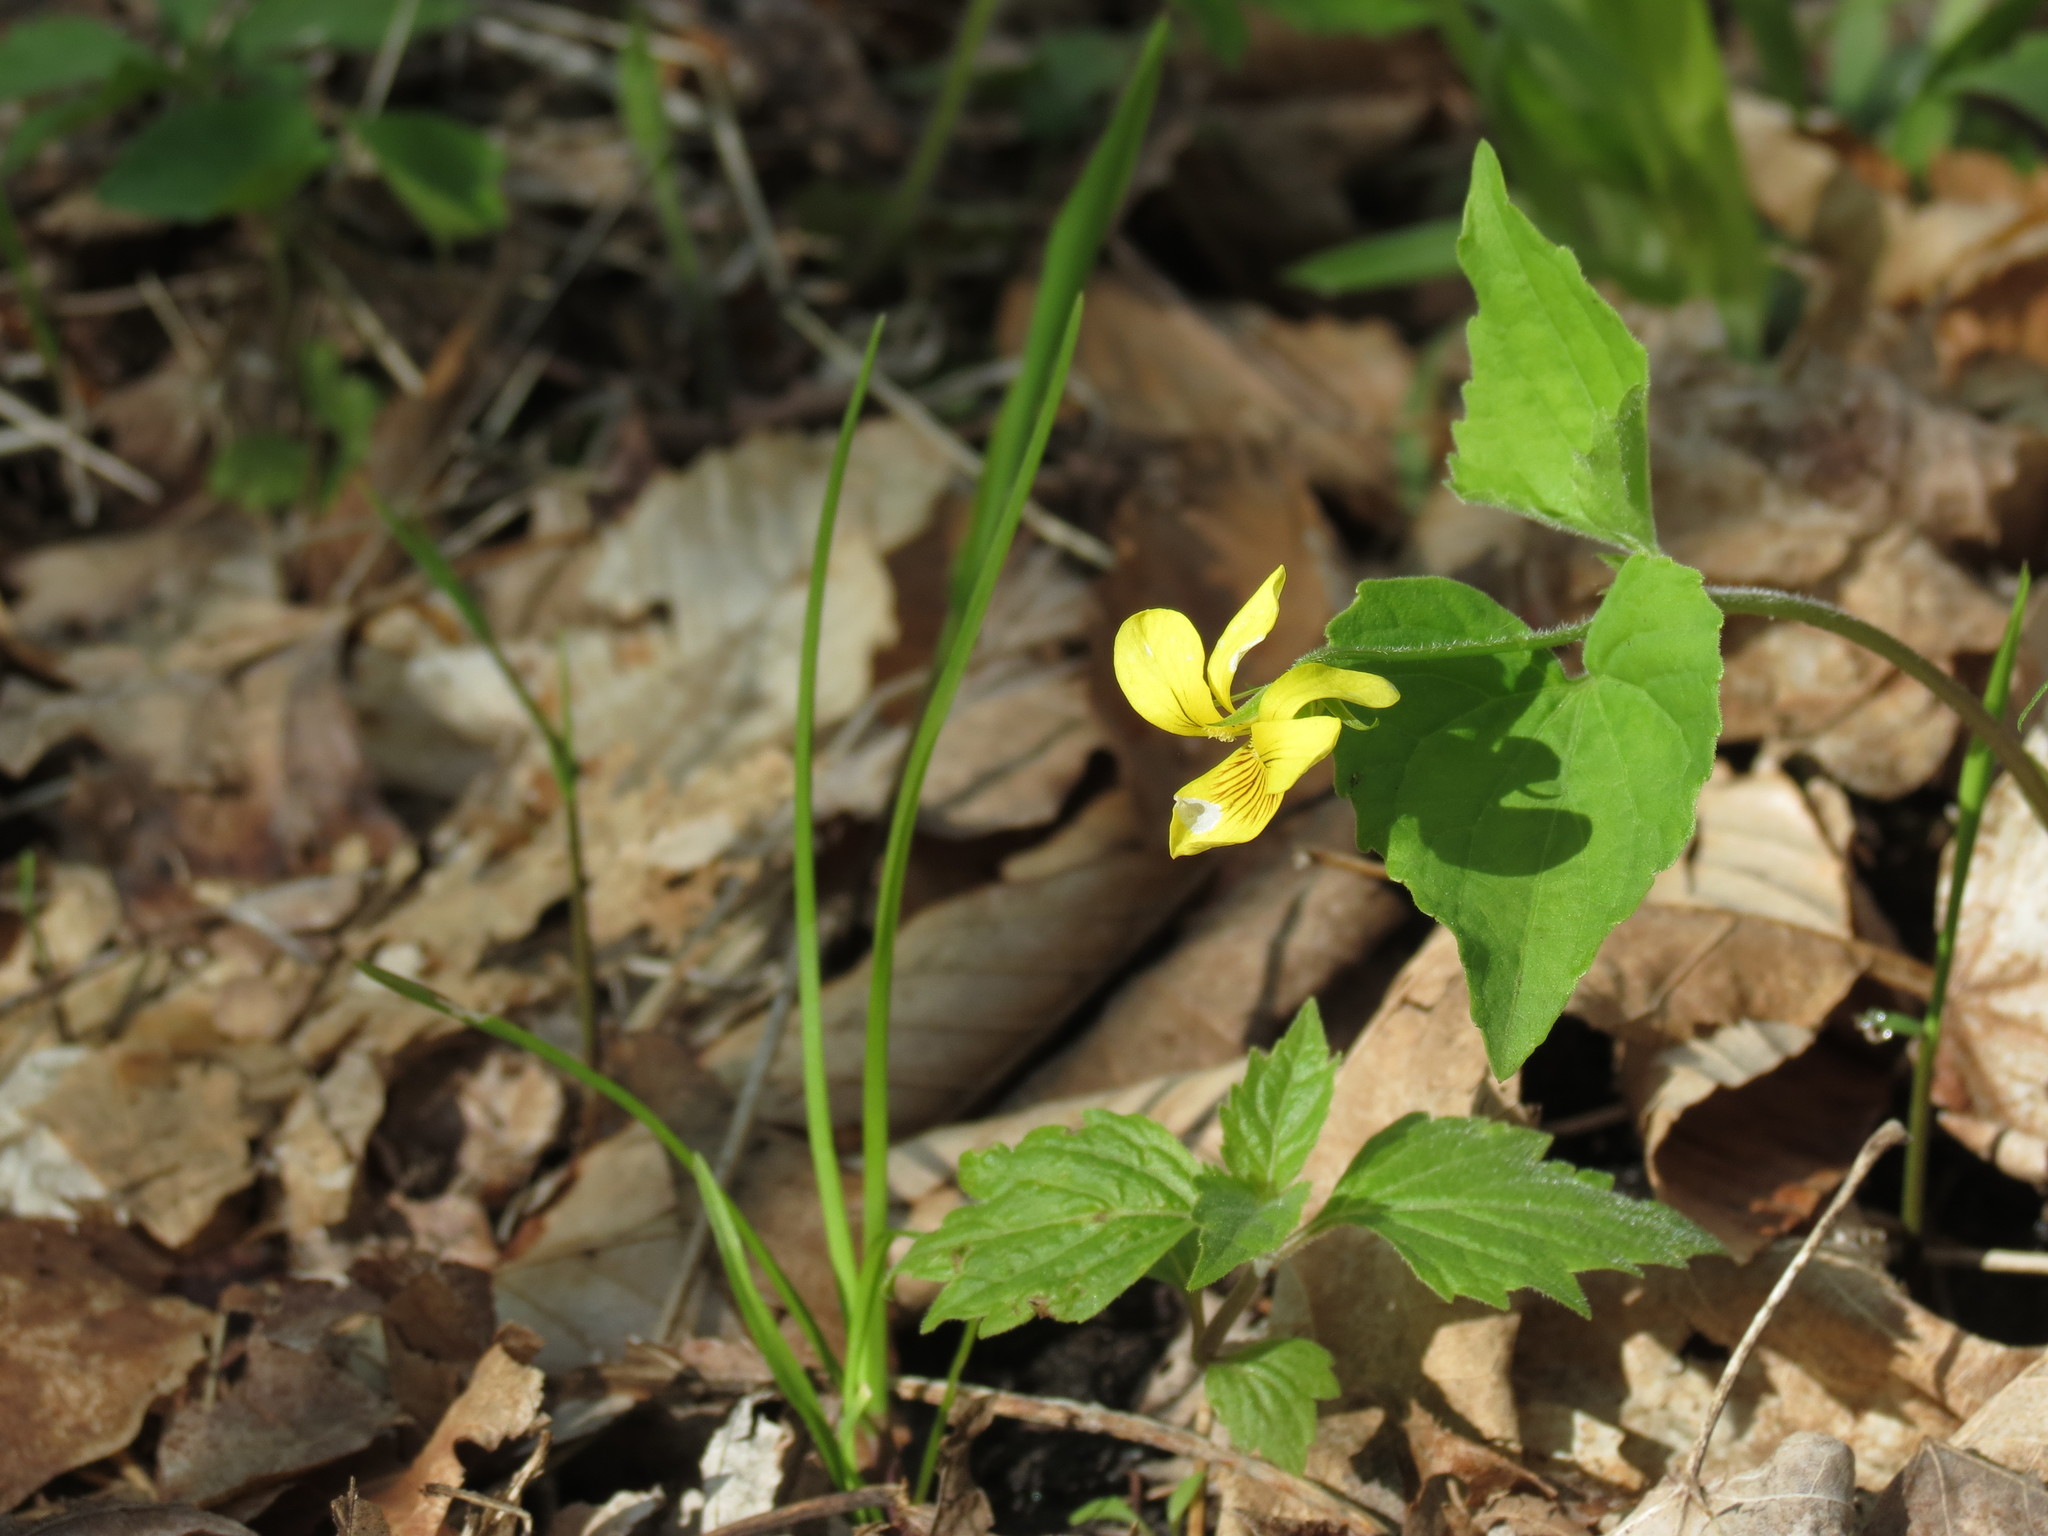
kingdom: Plantae
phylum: Tracheophyta
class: Magnoliopsida
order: Malpighiales
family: Violaceae
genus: Viola
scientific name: Viola eriocarpa
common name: Smooth yellow violet
